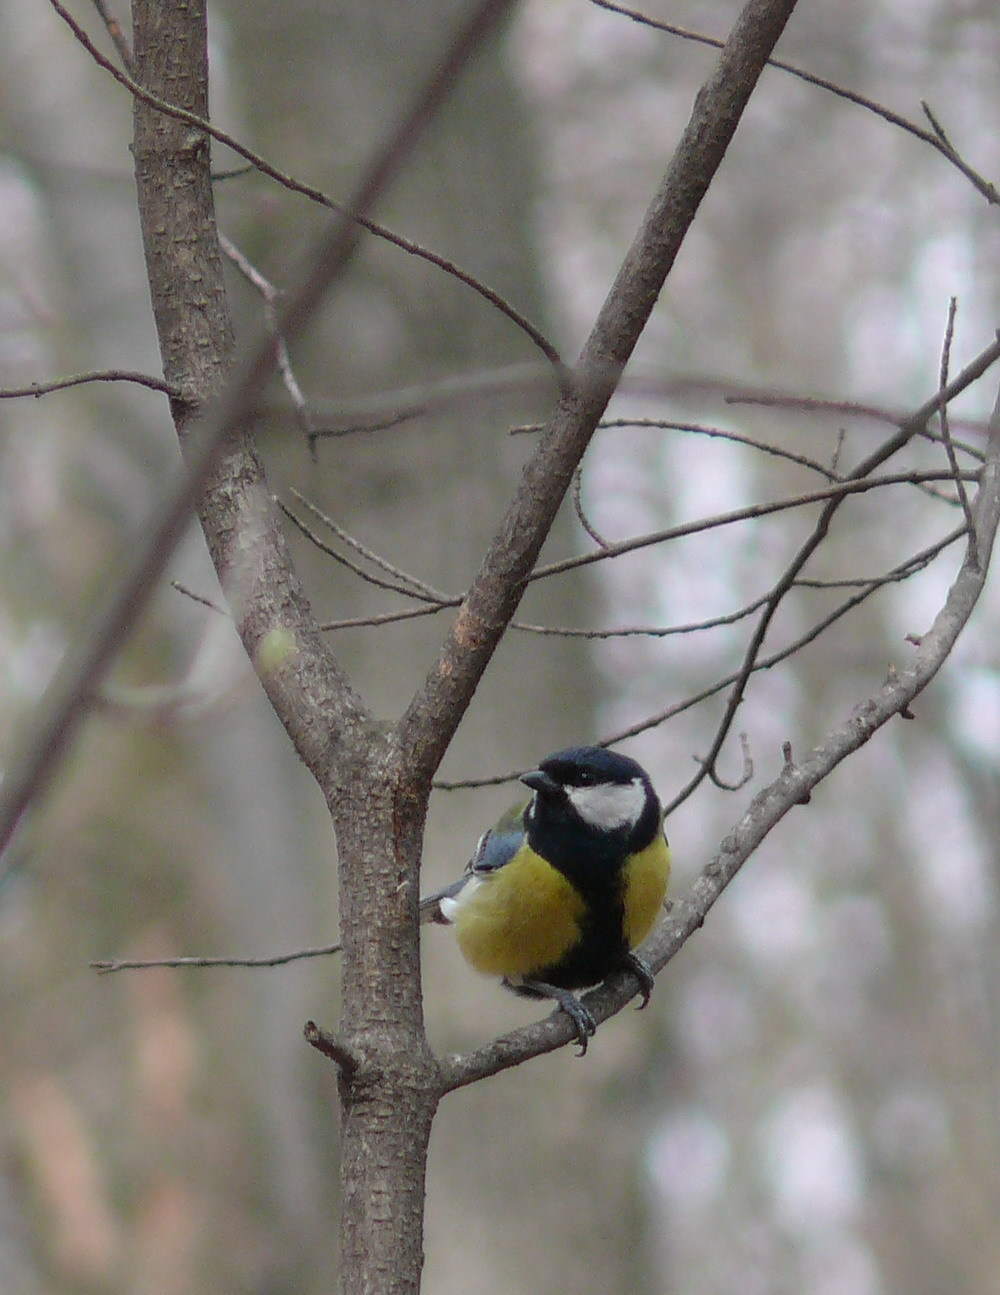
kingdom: Animalia
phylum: Chordata
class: Aves
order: Passeriformes
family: Paridae
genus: Parus
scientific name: Parus major
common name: Great tit
